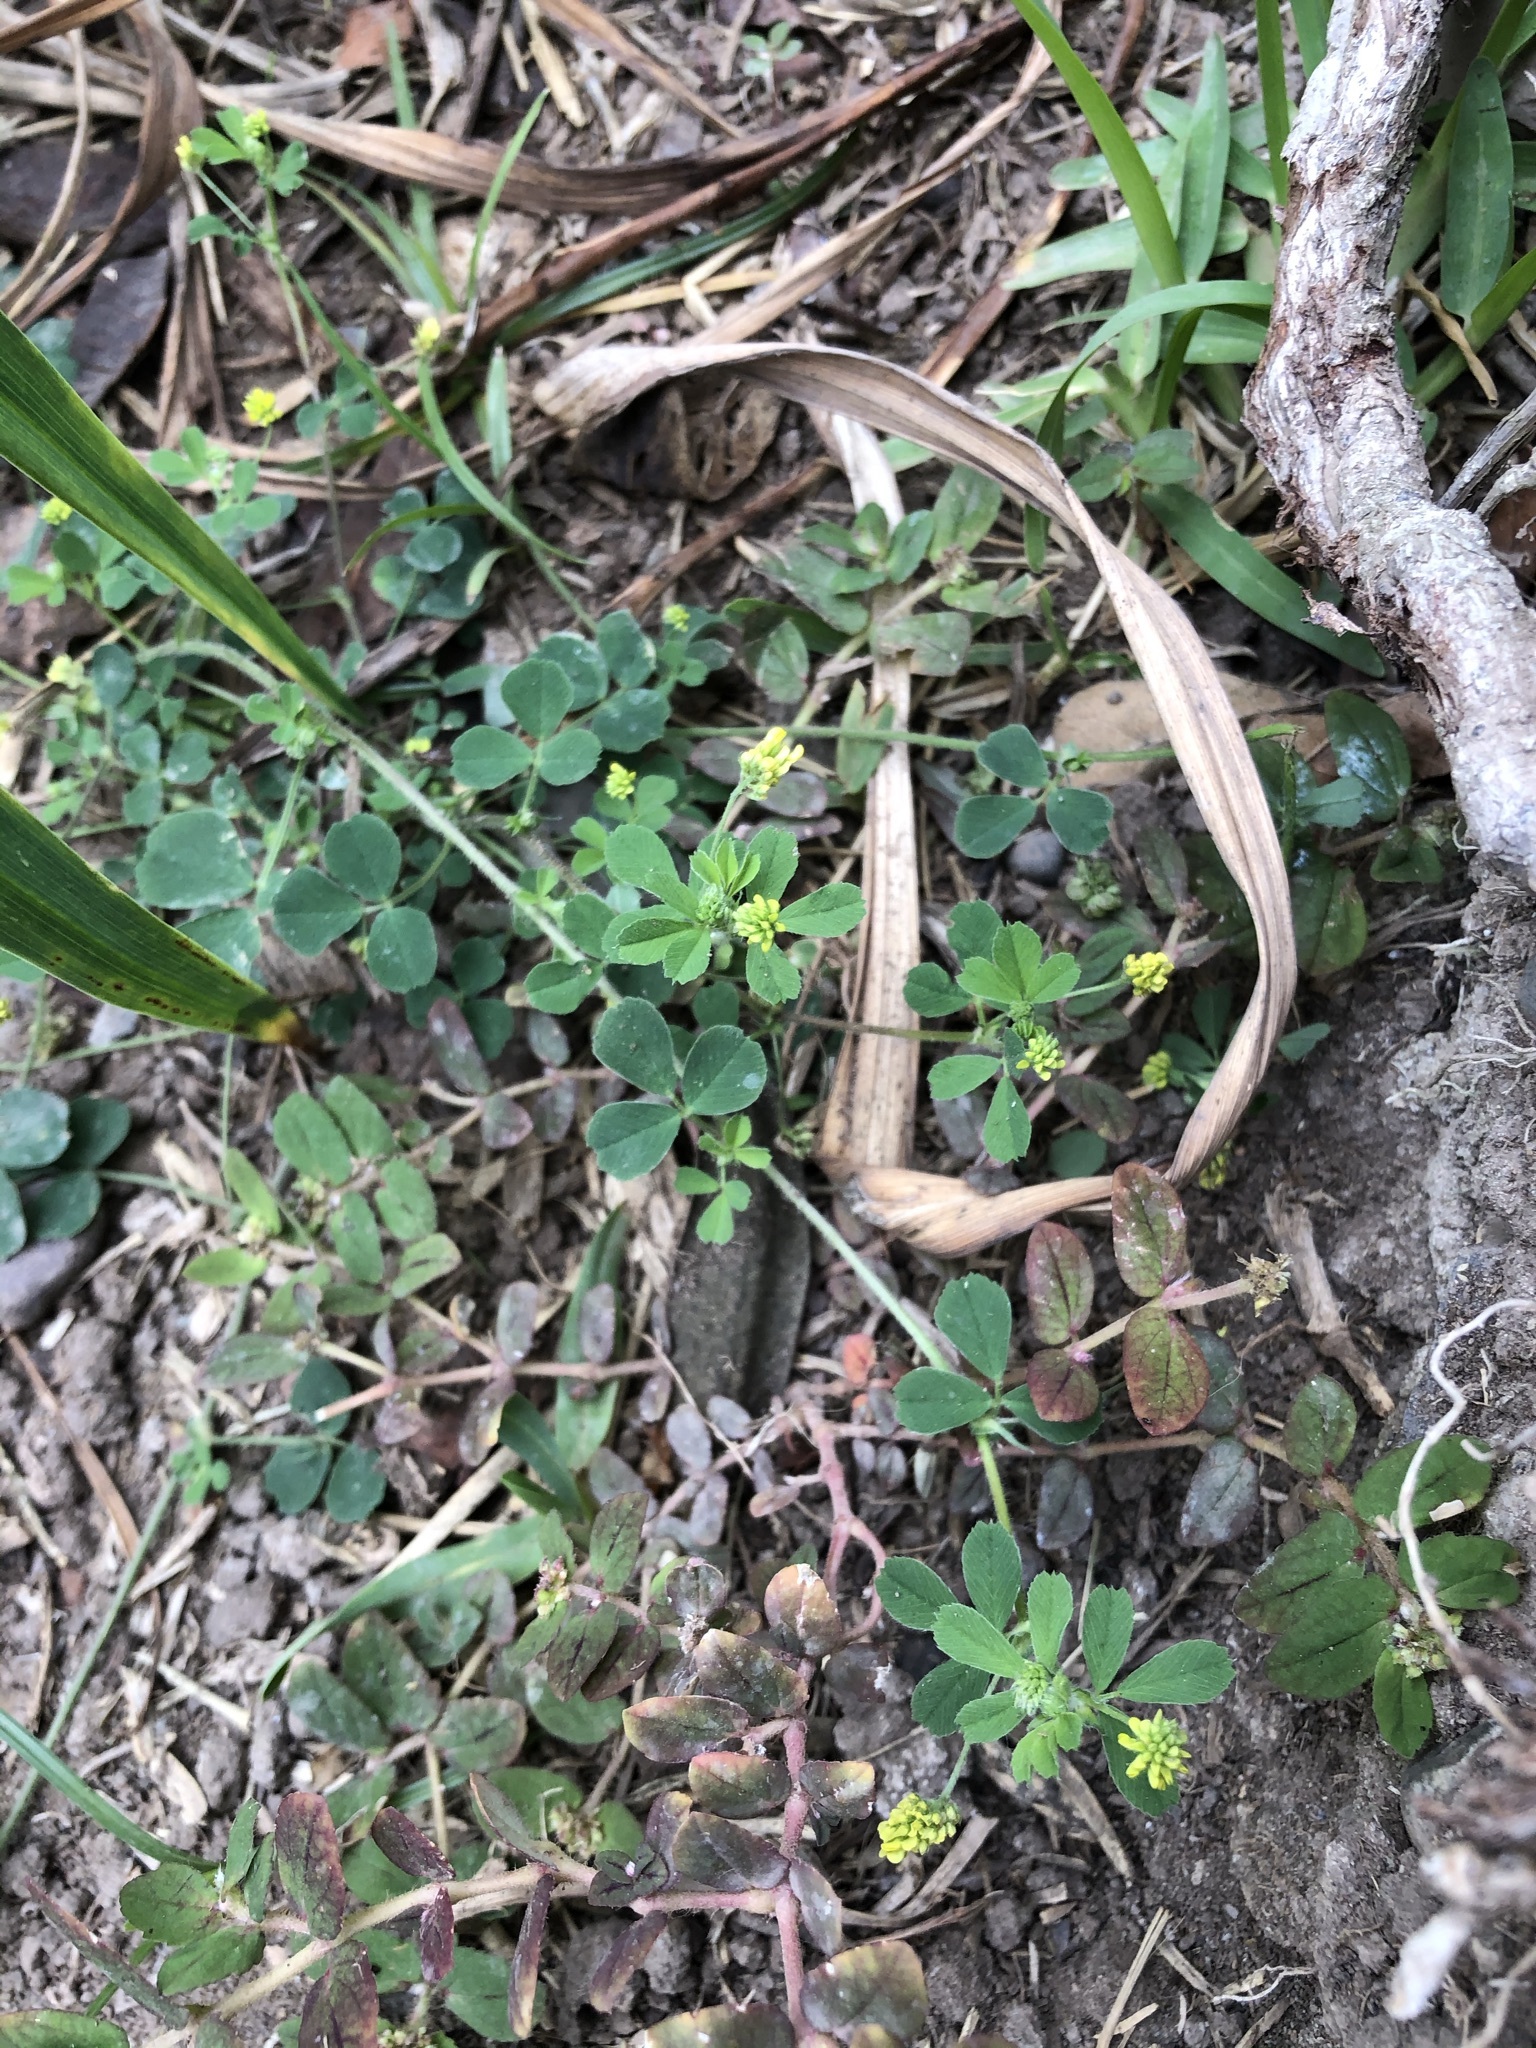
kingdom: Plantae
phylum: Tracheophyta
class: Magnoliopsida
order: Fabales
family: Fabaceae
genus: Medicago
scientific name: Medicago lupulina
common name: Black medick
